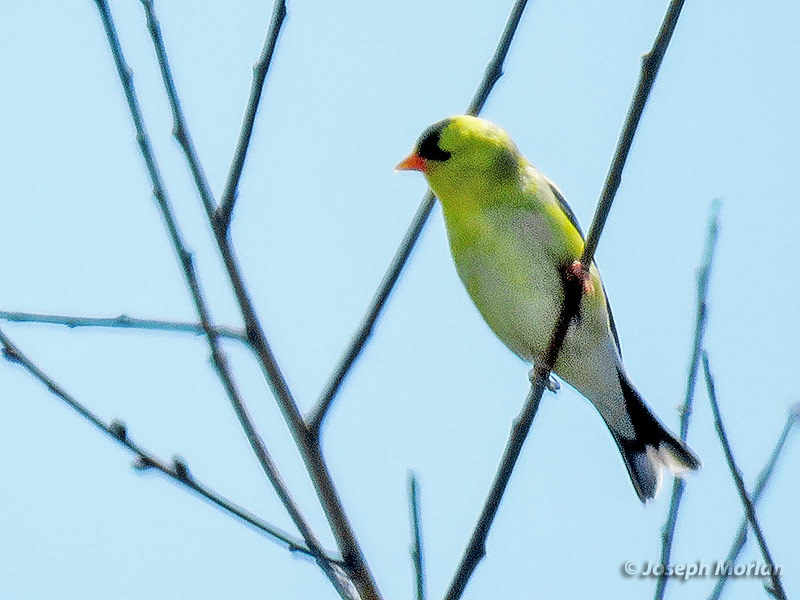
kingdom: Animalia
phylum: Chordata
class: Aves
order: Passeriformes
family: Fringillidae
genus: Spinus
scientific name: Spinus tristis
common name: American goldfinch
